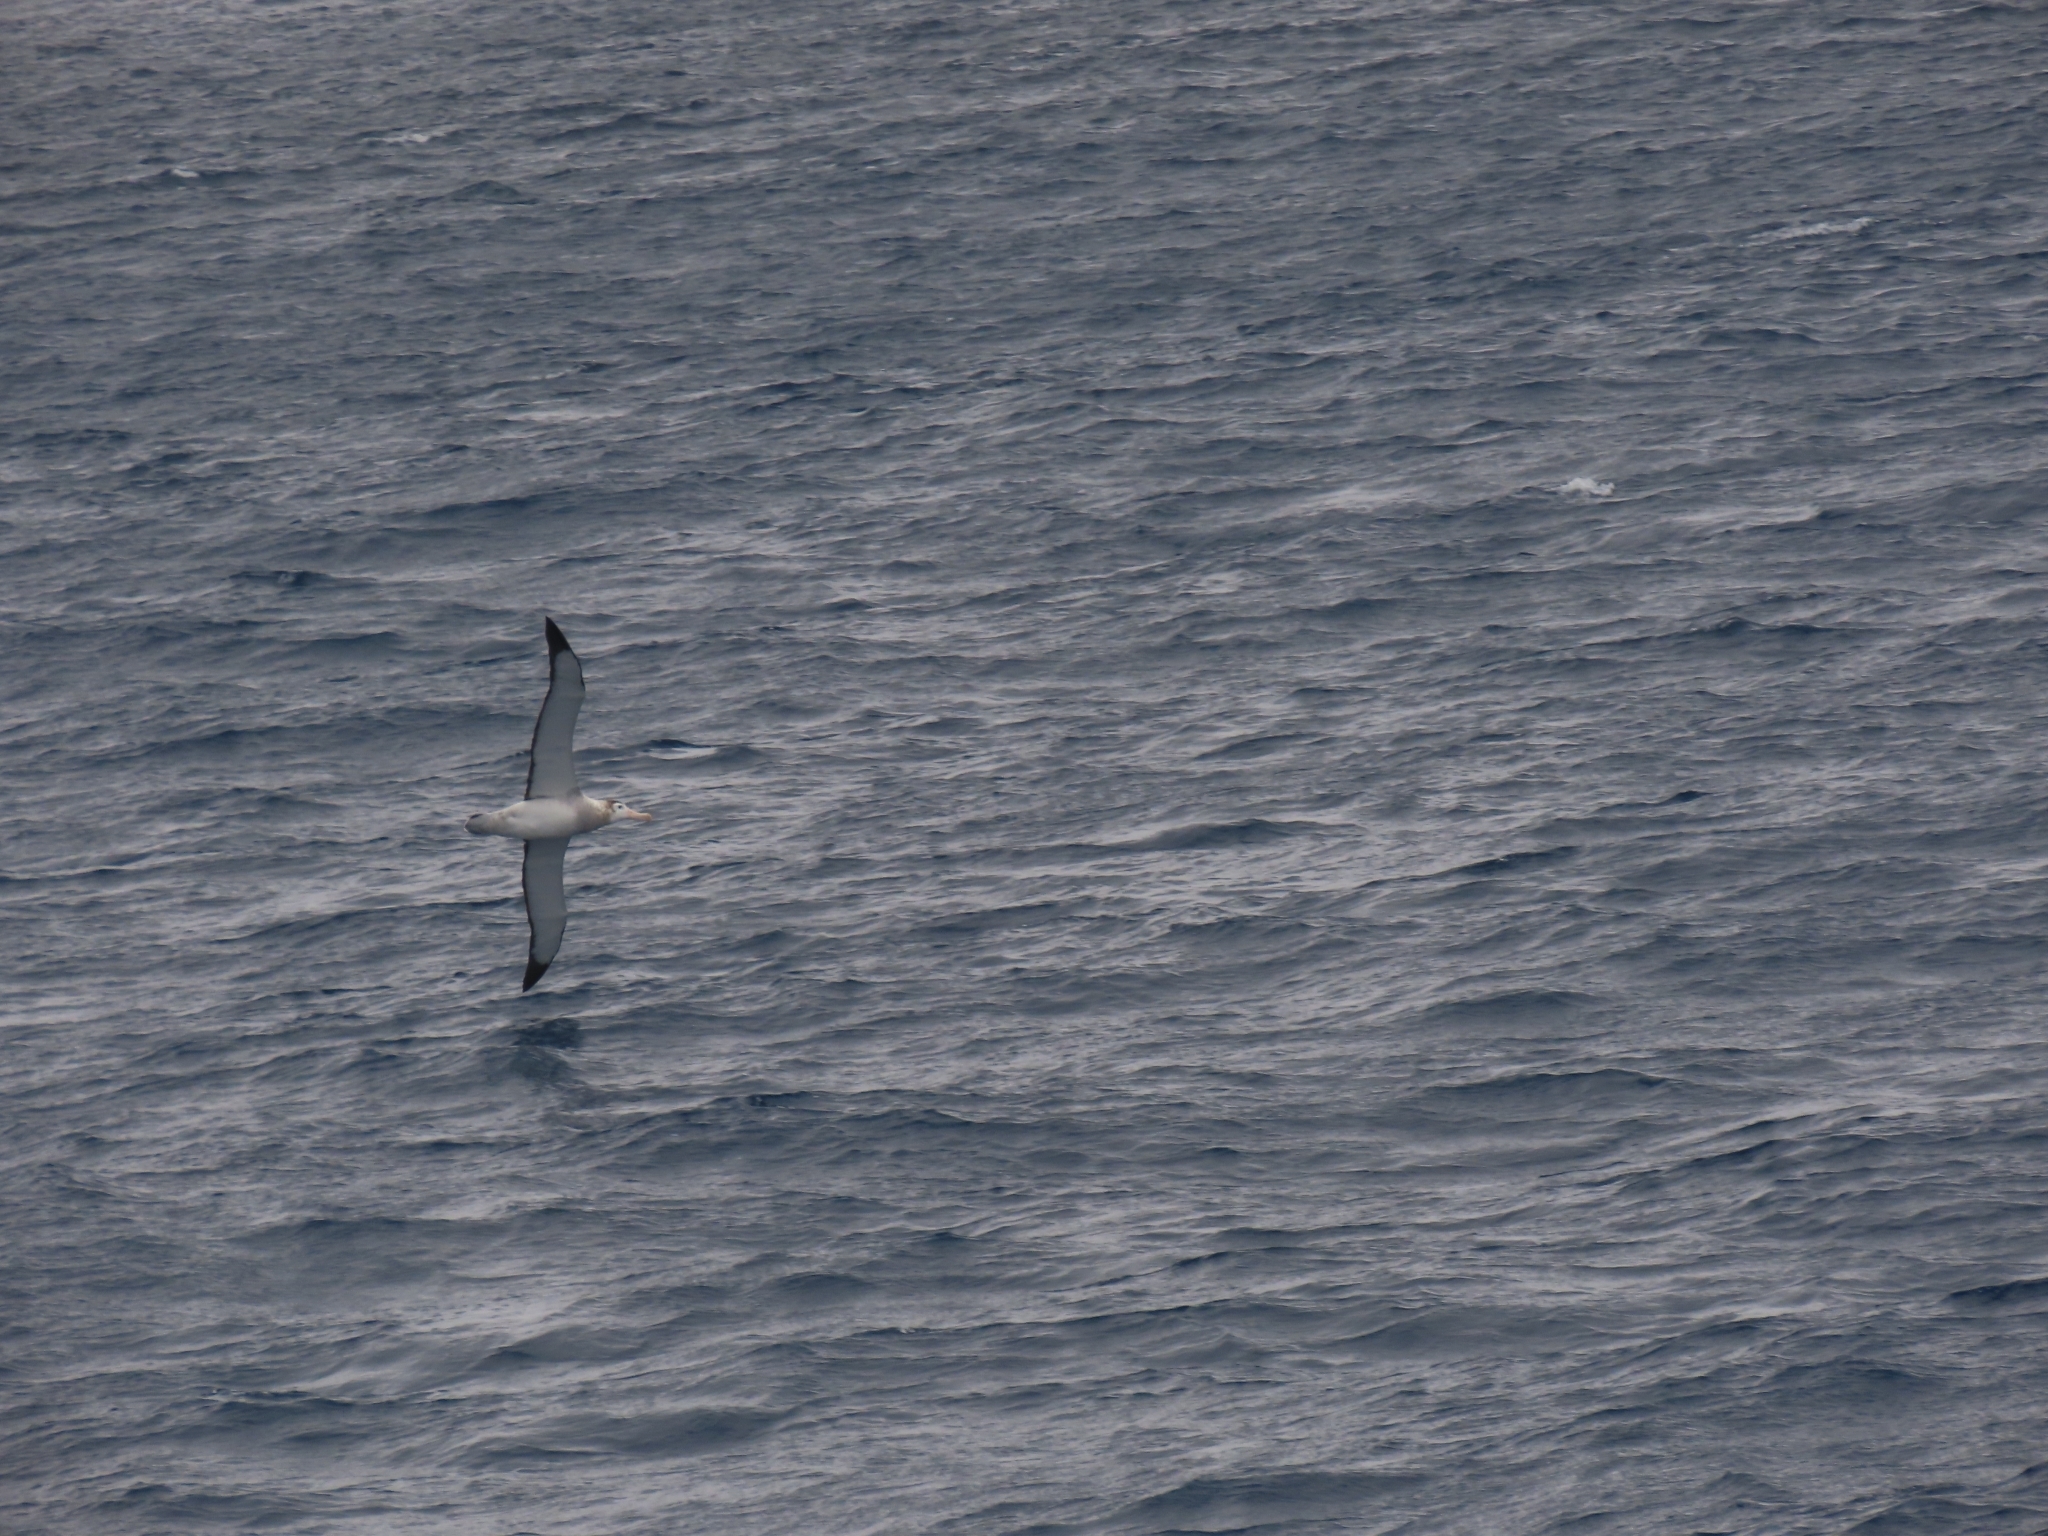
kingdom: Animalia
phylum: Chordata
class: Aves
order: Procellariiformes
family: Diomedeidae
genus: Diomedea
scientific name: Diomedea antipodensis
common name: Antipodean albatross
